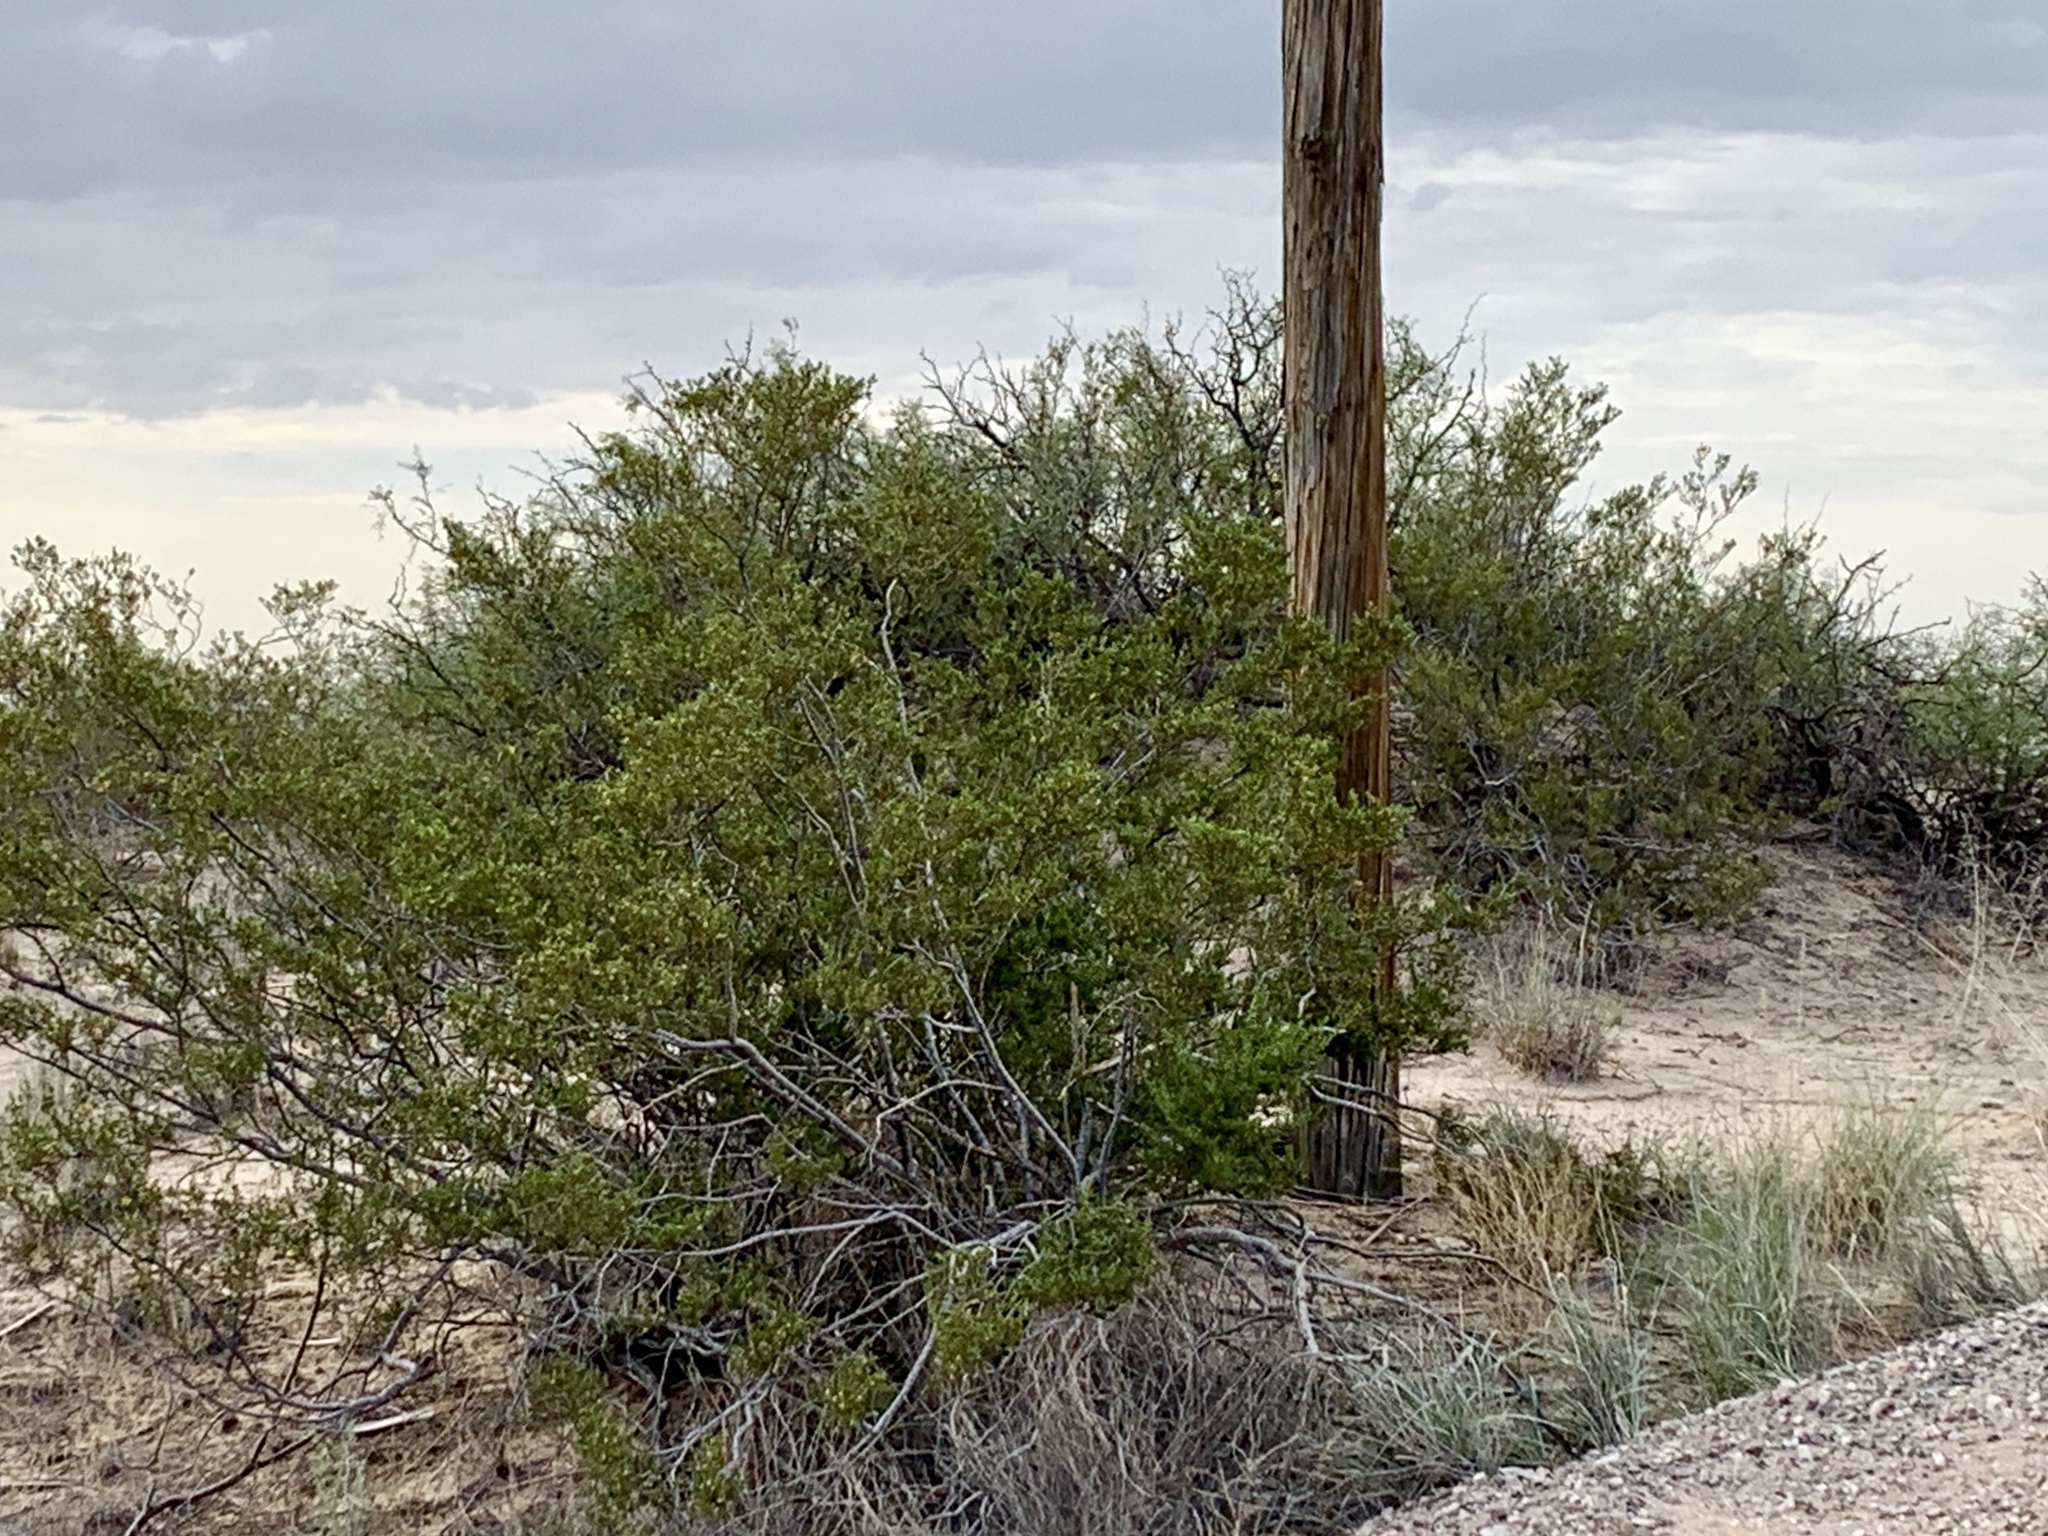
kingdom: Plantae
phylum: Tracheophyta
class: Magnoliopsida
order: Zygophyllales
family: Zygophyllaceae
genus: Larrea
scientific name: Larrea tridentata
